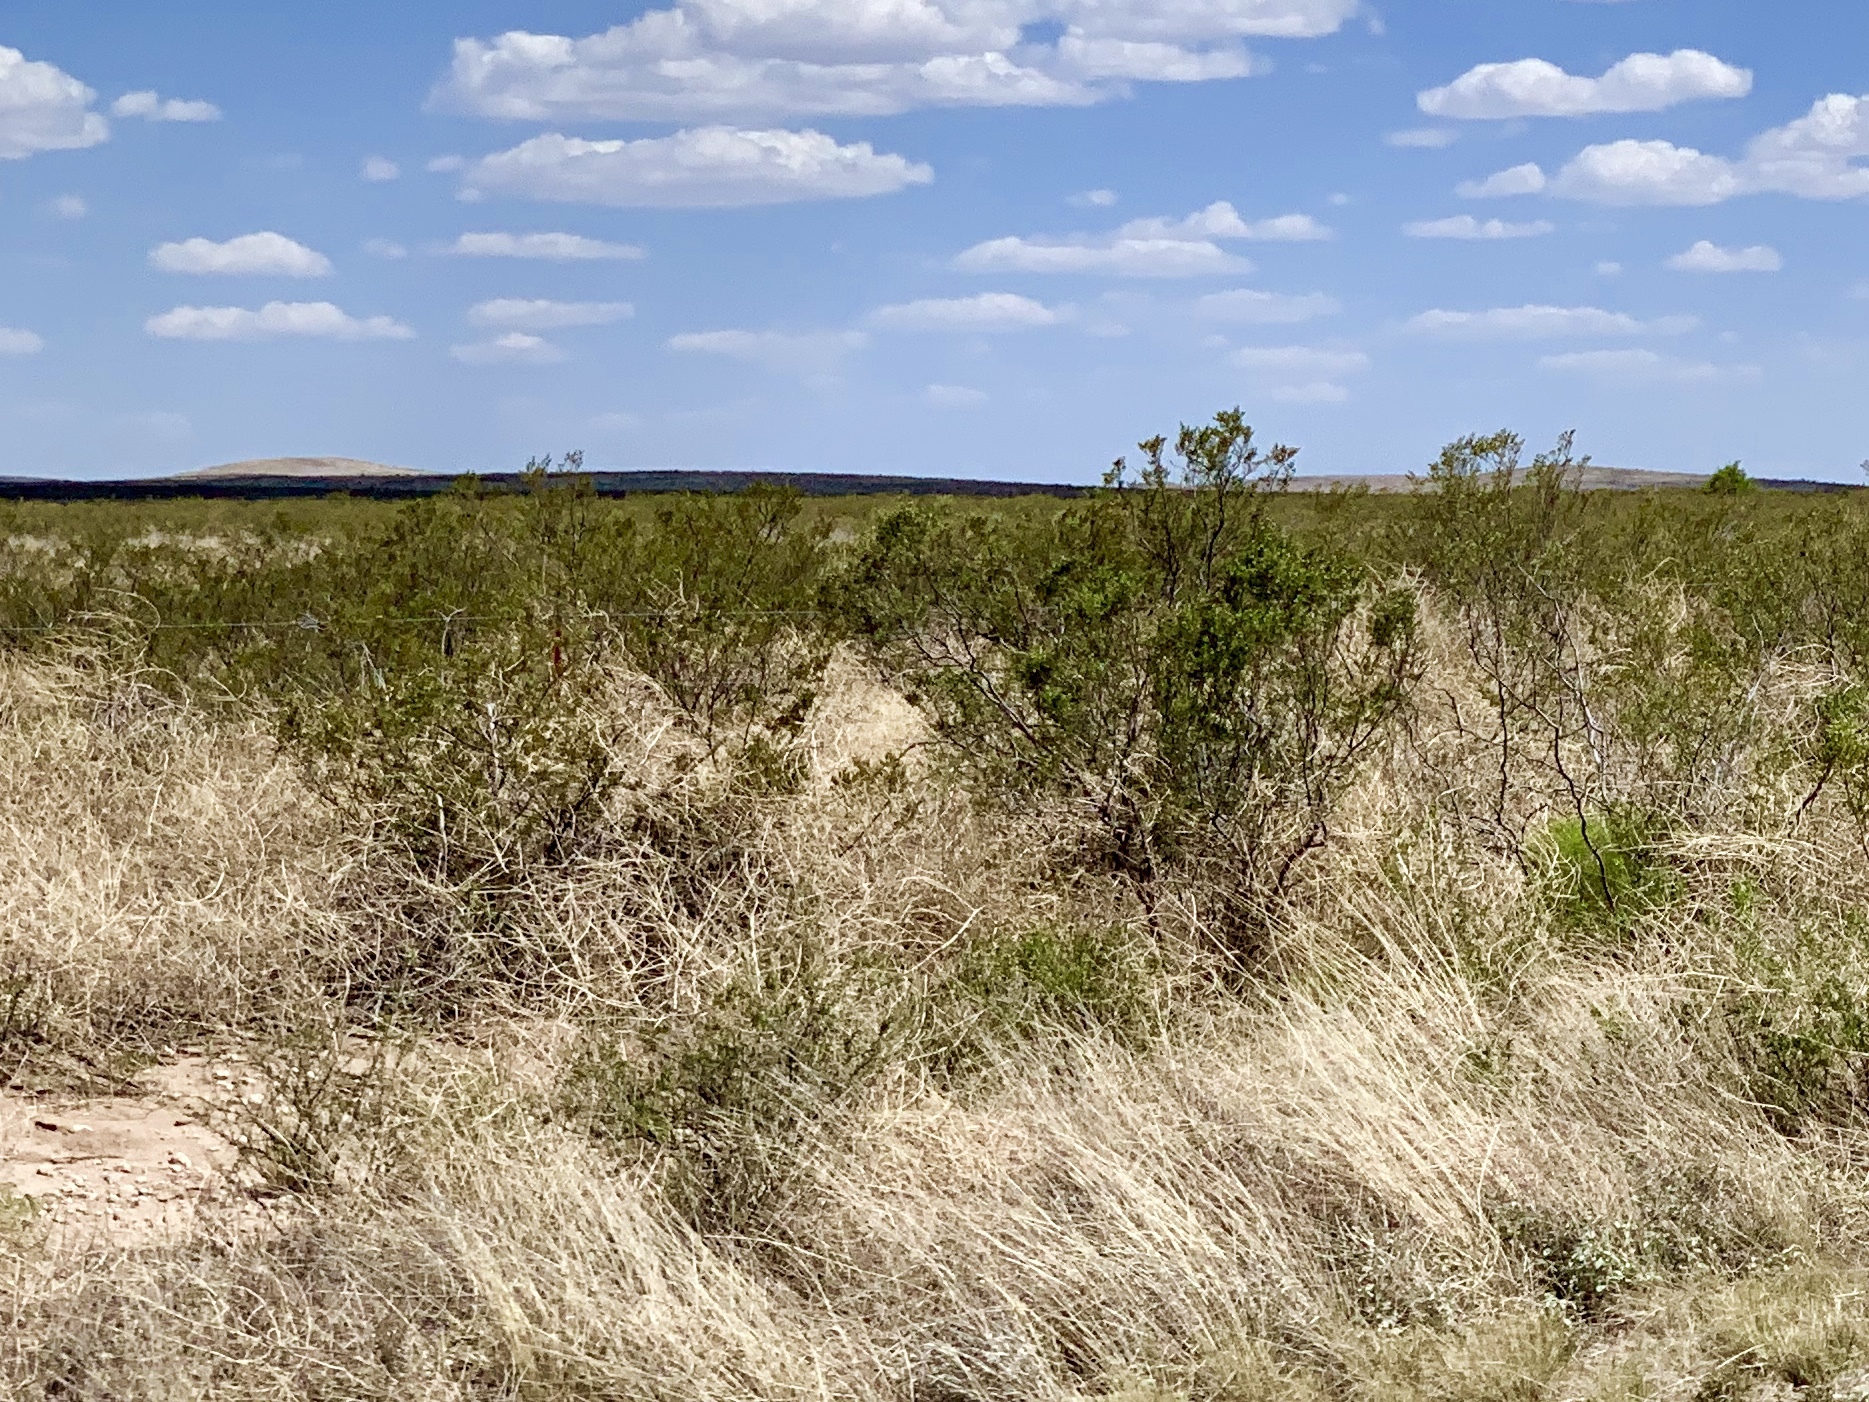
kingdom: Plantae
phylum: Tracheophyta
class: Magnoliopsida
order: Zygophyllales
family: Zygophyllaceae
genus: Larrea
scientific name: Larrea tridentata
